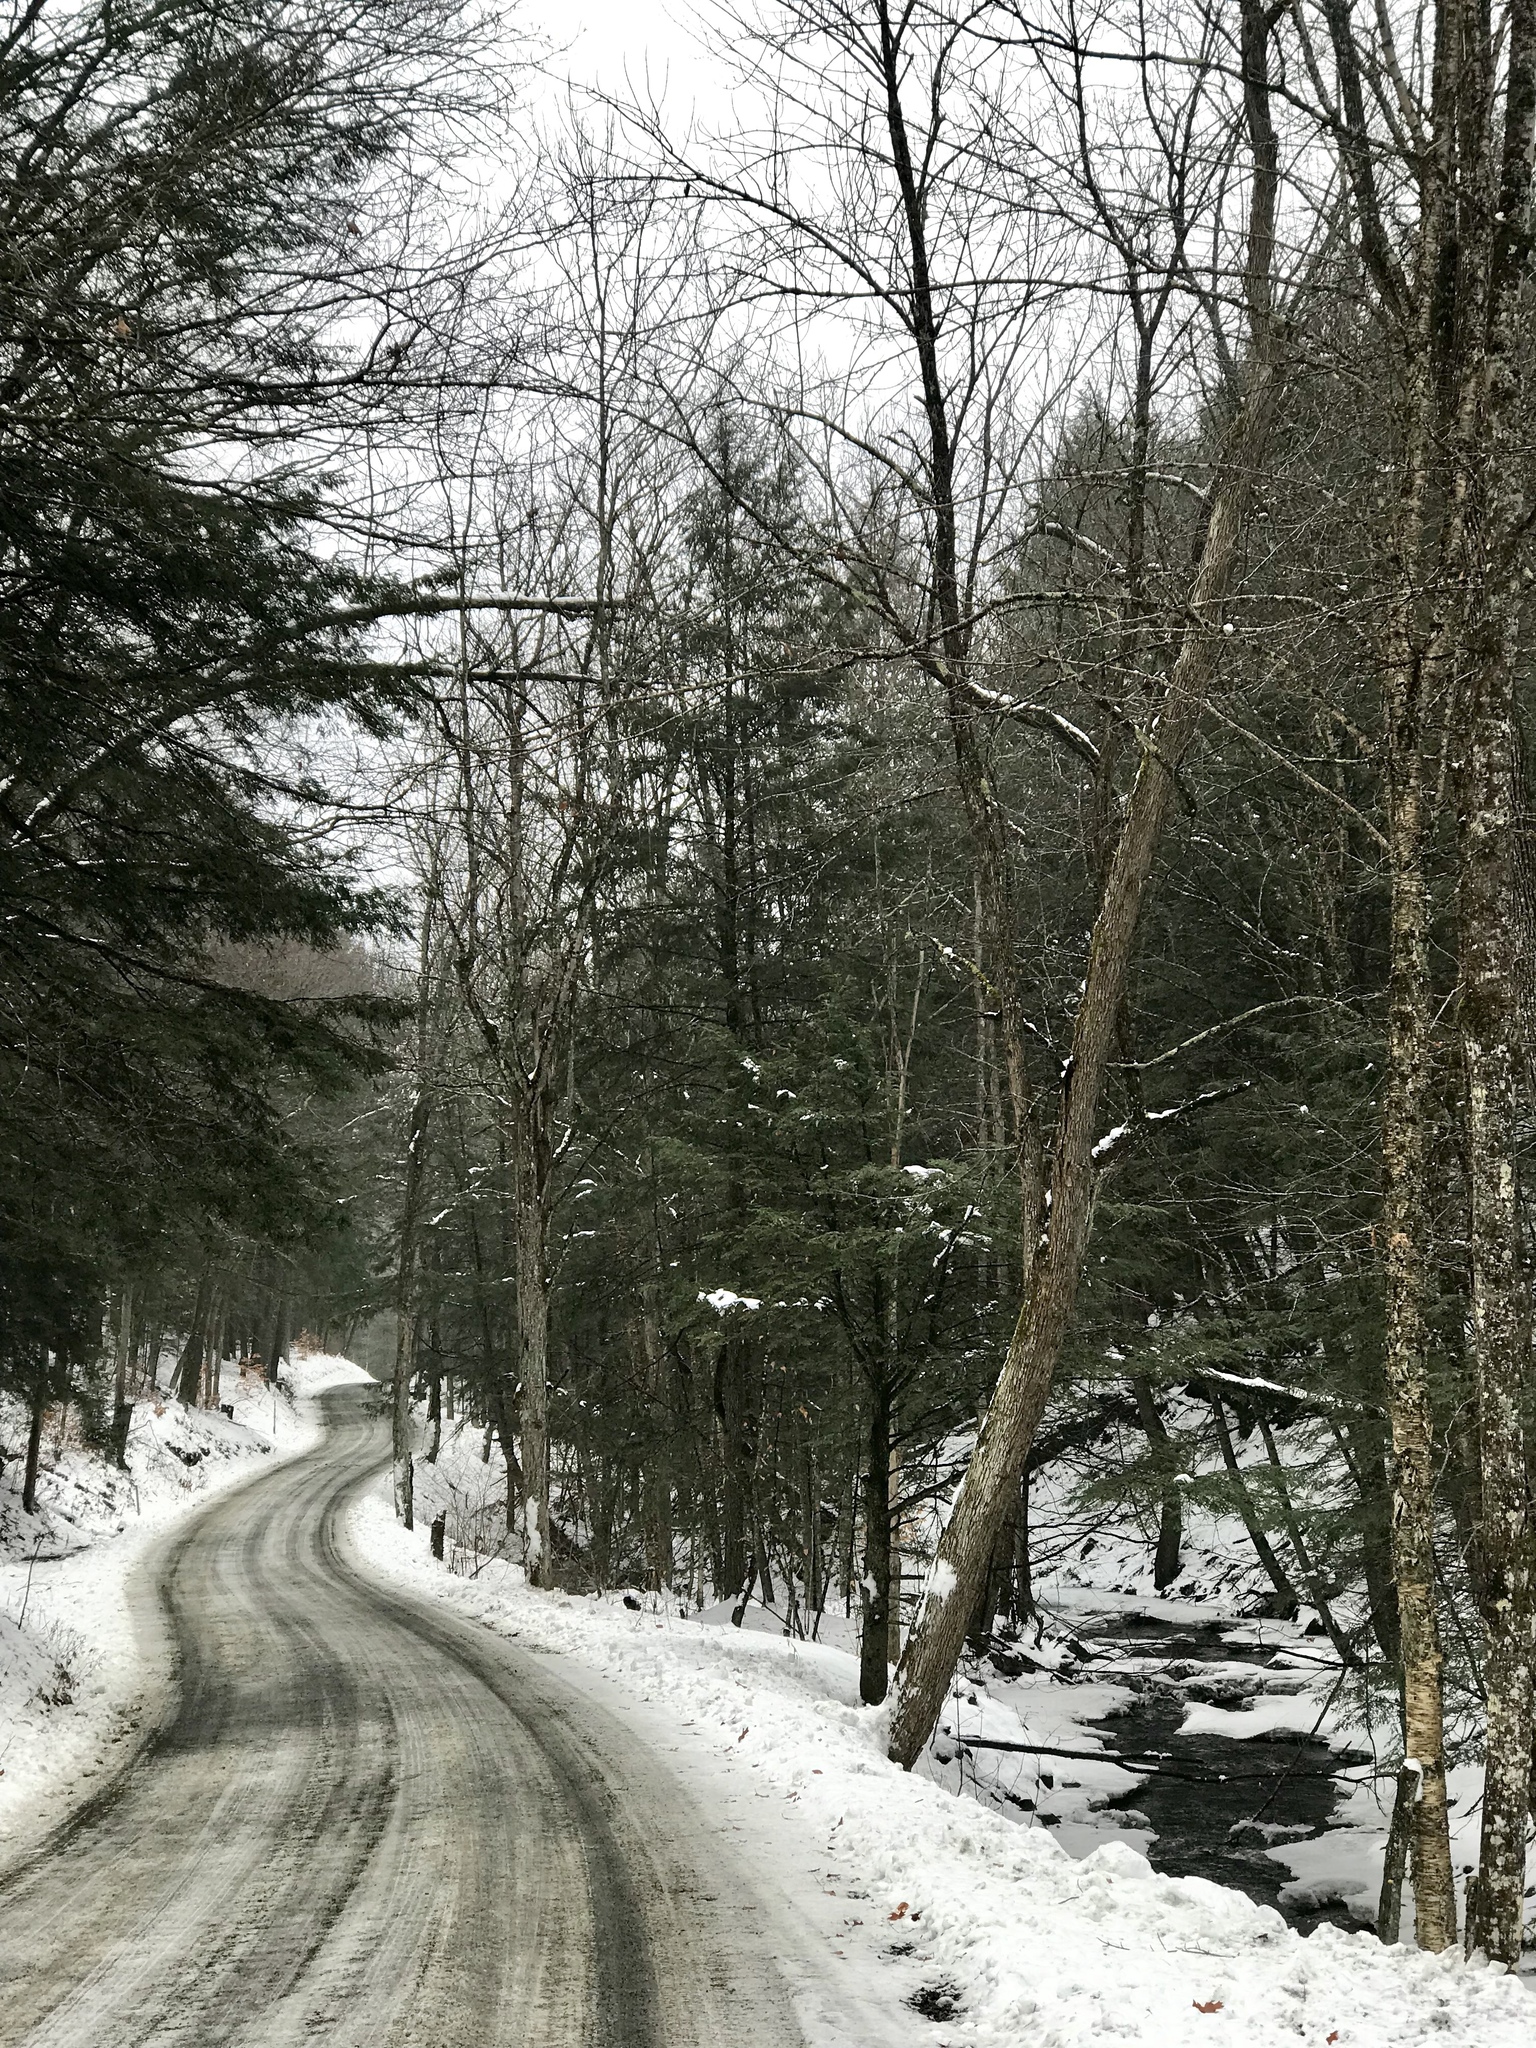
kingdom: Plantae
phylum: Tracheophyta
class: Pinopsida
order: Pinales
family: Pinaceae
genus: Tsuga
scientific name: Tsuga canadensis
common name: Eastern hemlock
